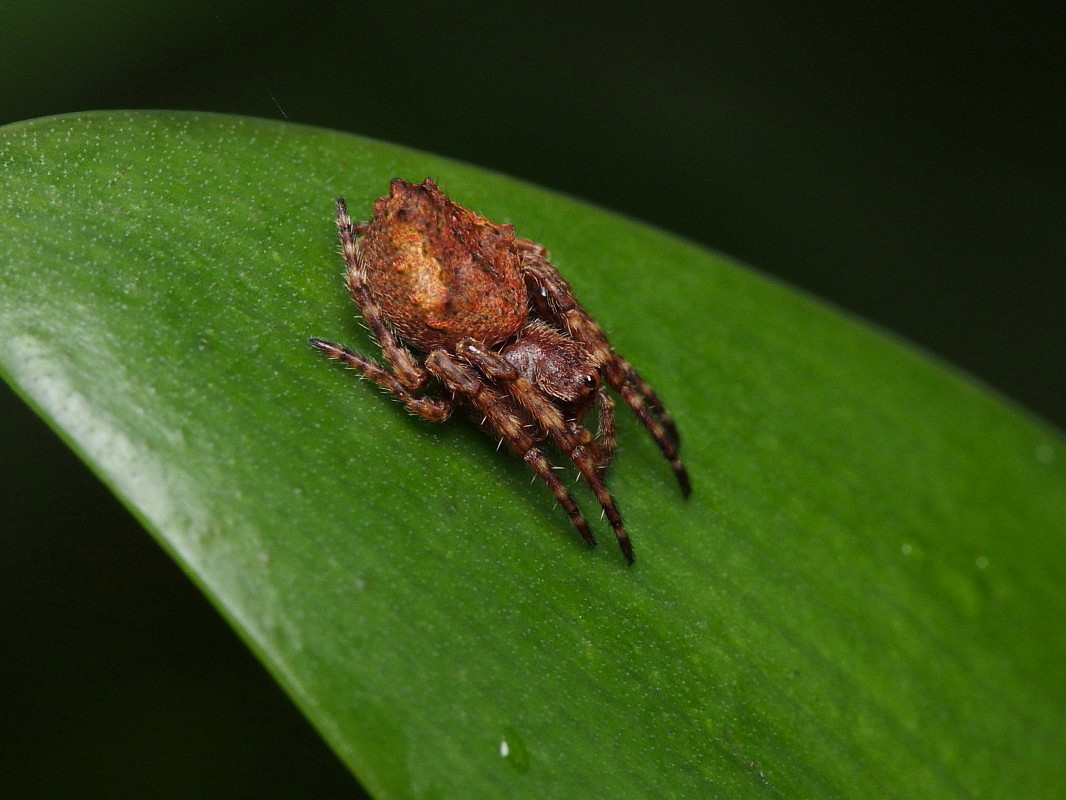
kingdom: Animalia
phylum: Arthropoda
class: Arachnida
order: Araneae
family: Araneidae
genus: Eriophora
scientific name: Eriophora pustulosa
